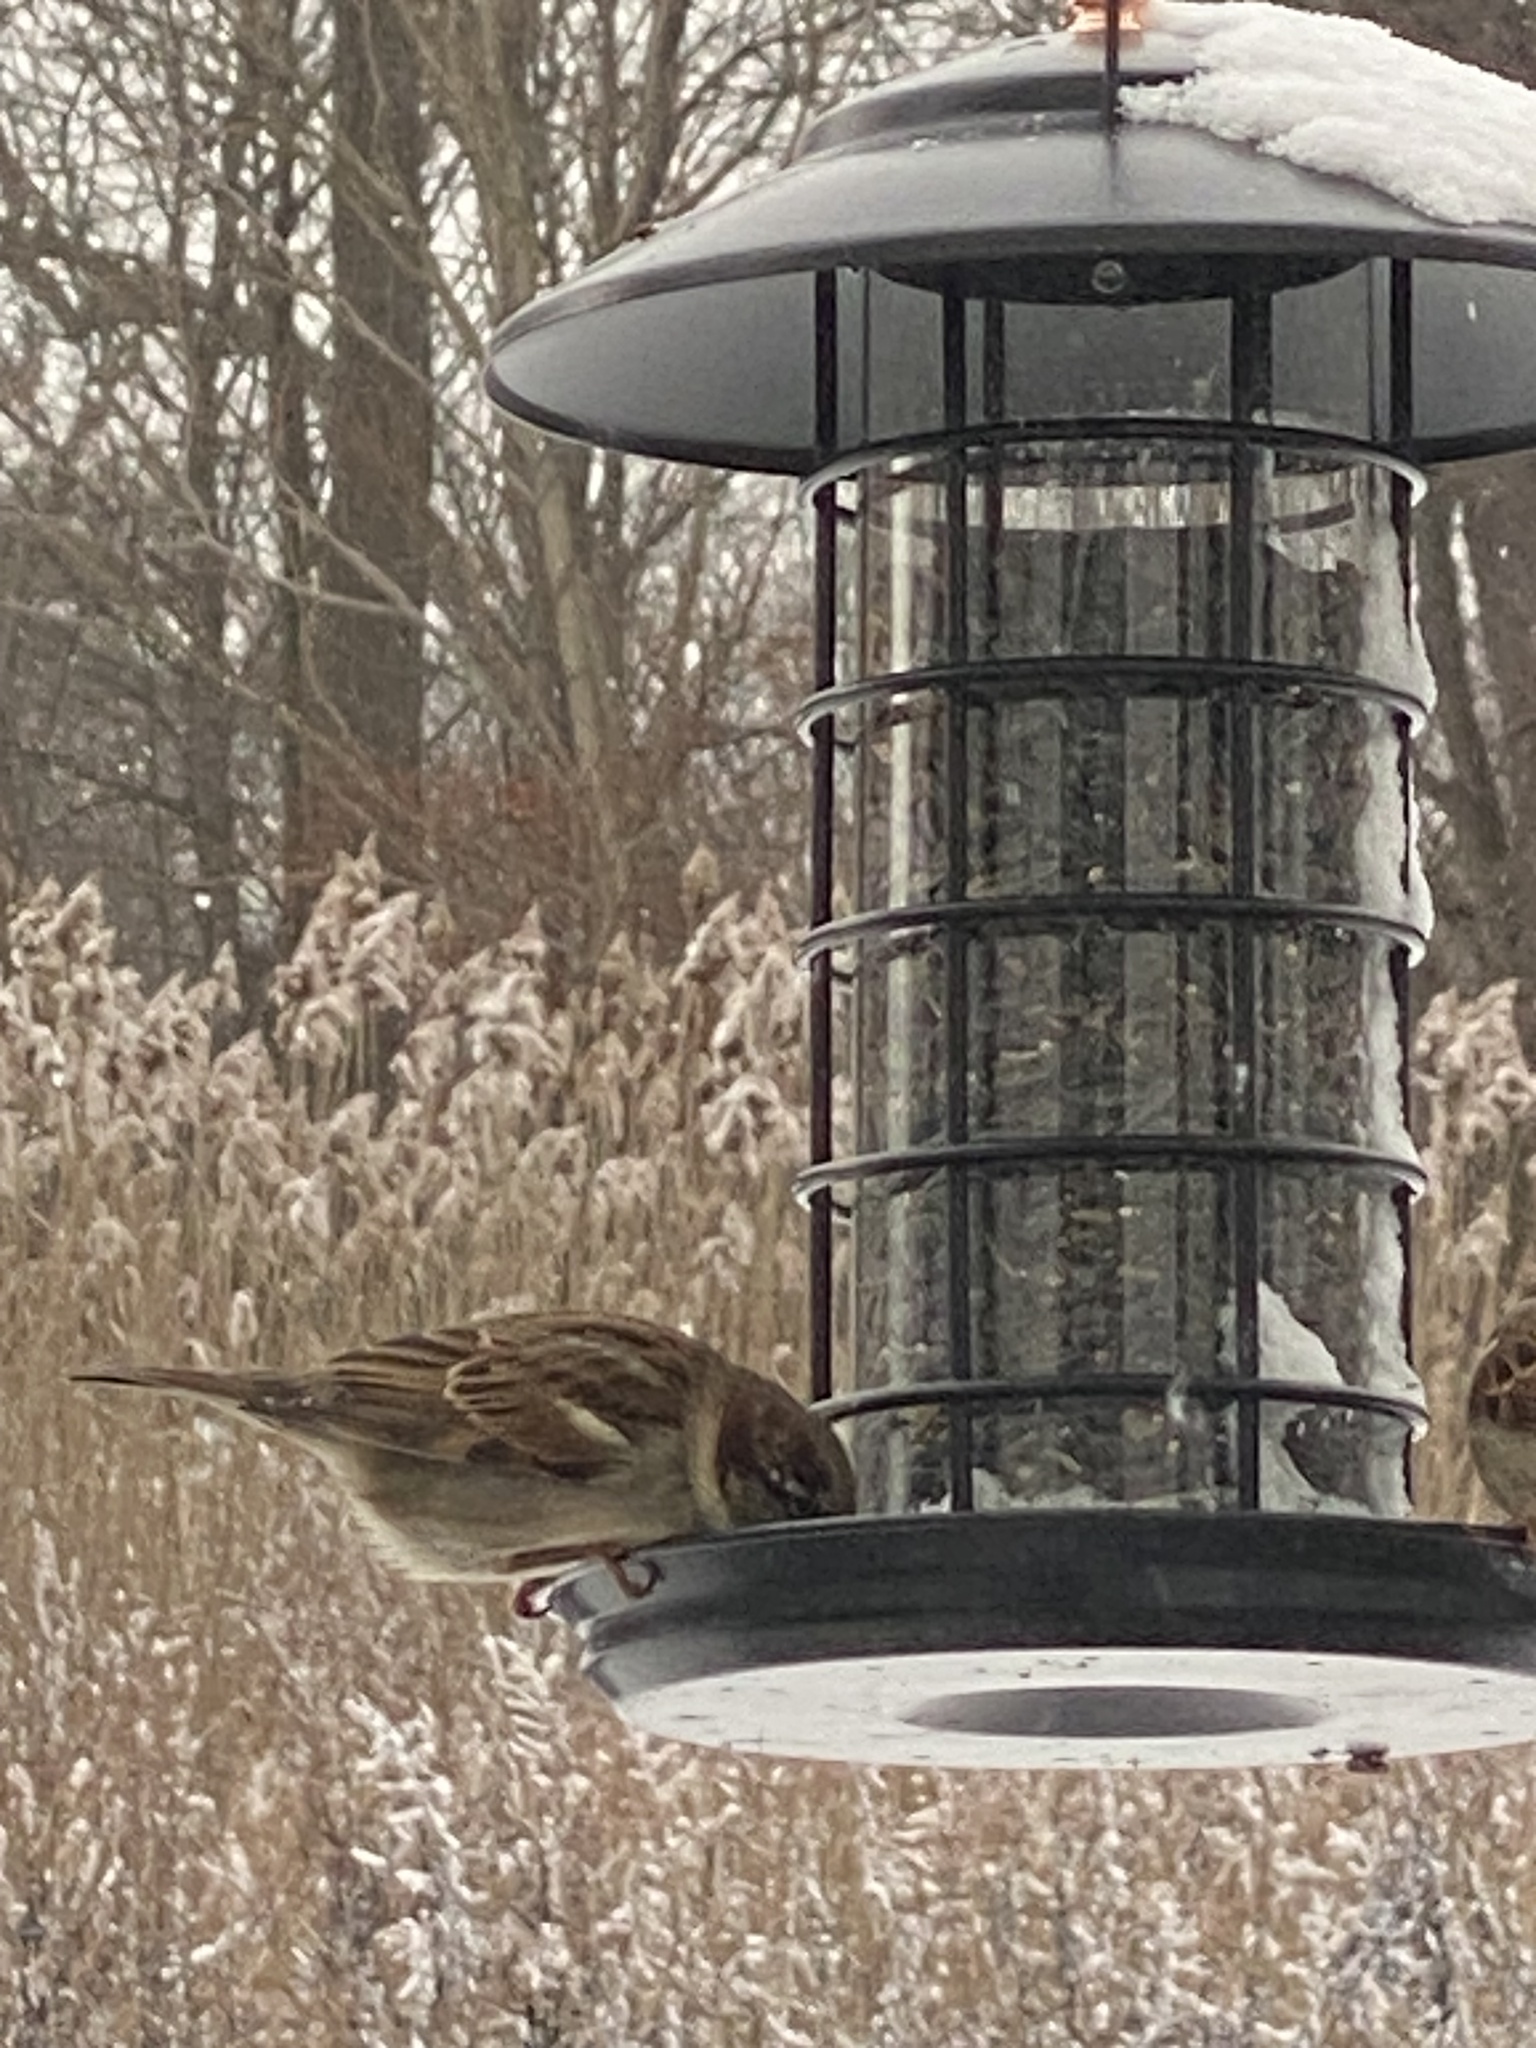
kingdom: Animalia
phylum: Chordata
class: Aves
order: Passeriformes
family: Passeridae
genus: Passer
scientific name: Passer domesticus
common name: House sparrow
